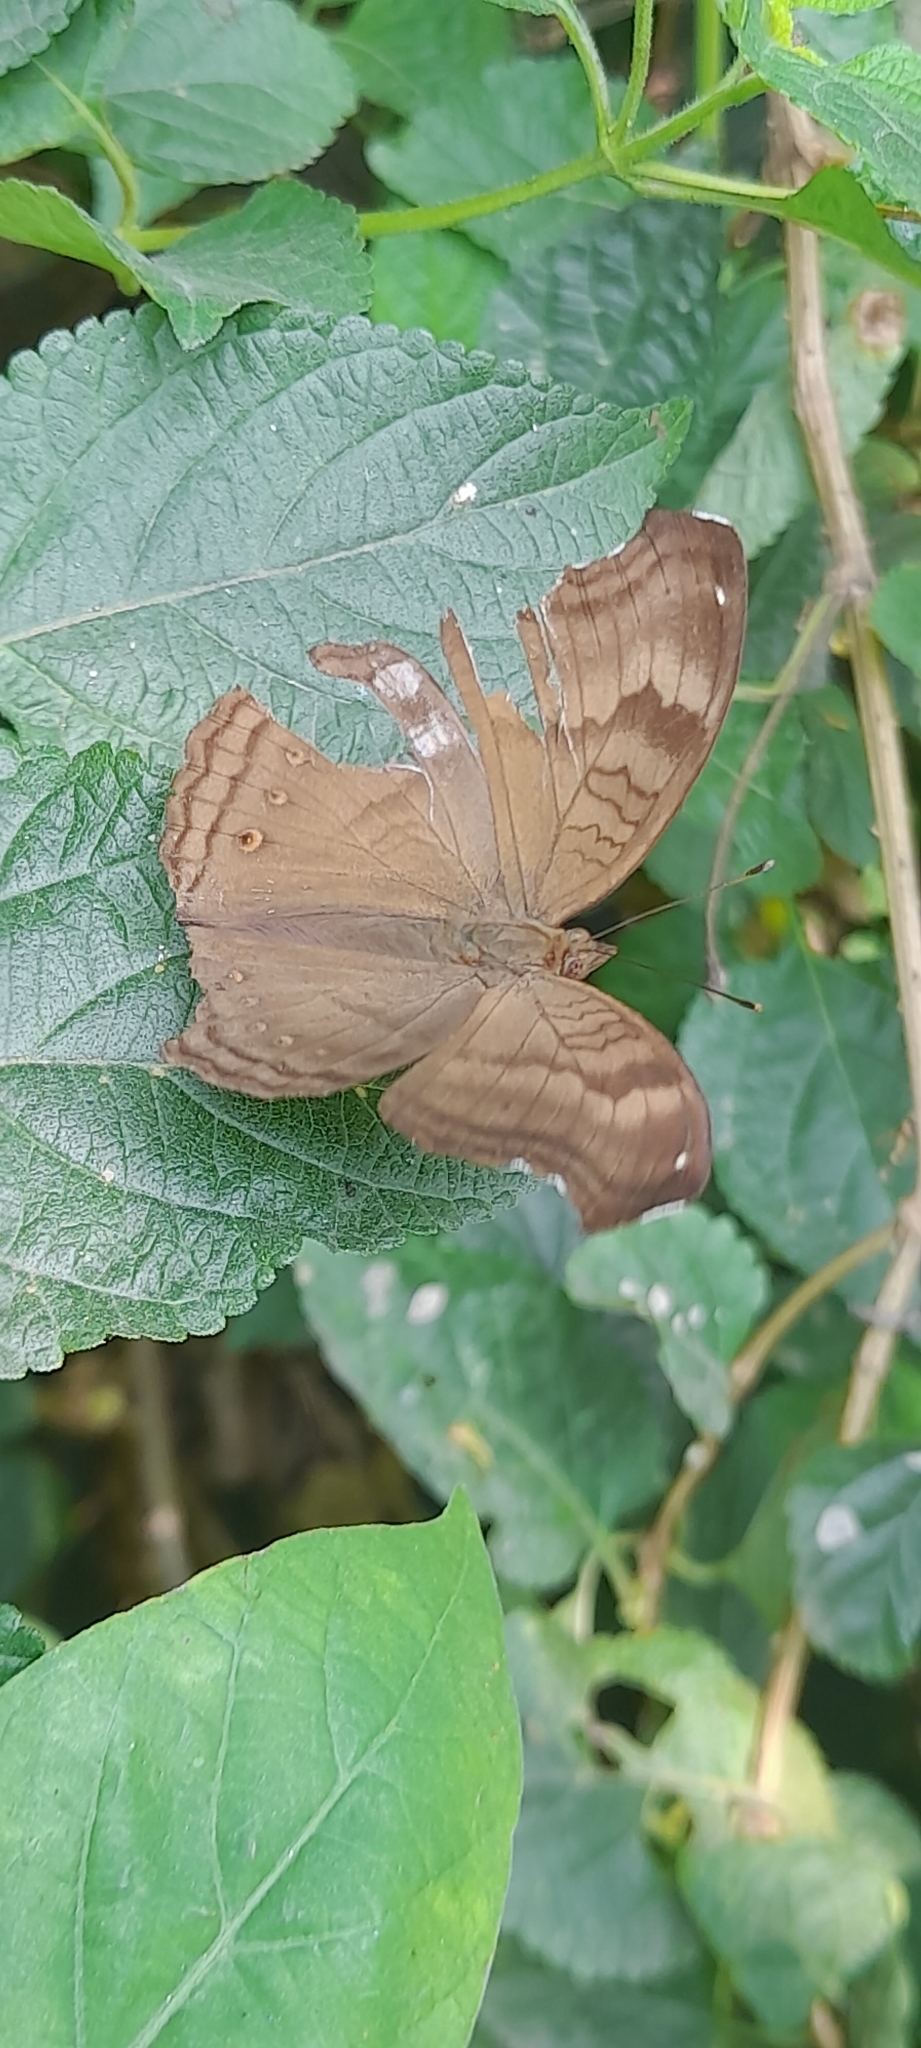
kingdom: Animalia
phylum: Arthropoda
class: Insecta
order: Lepidoptera
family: Nymphalidae
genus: Junonia
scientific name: Junonia iphita
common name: Chocolate pansy
